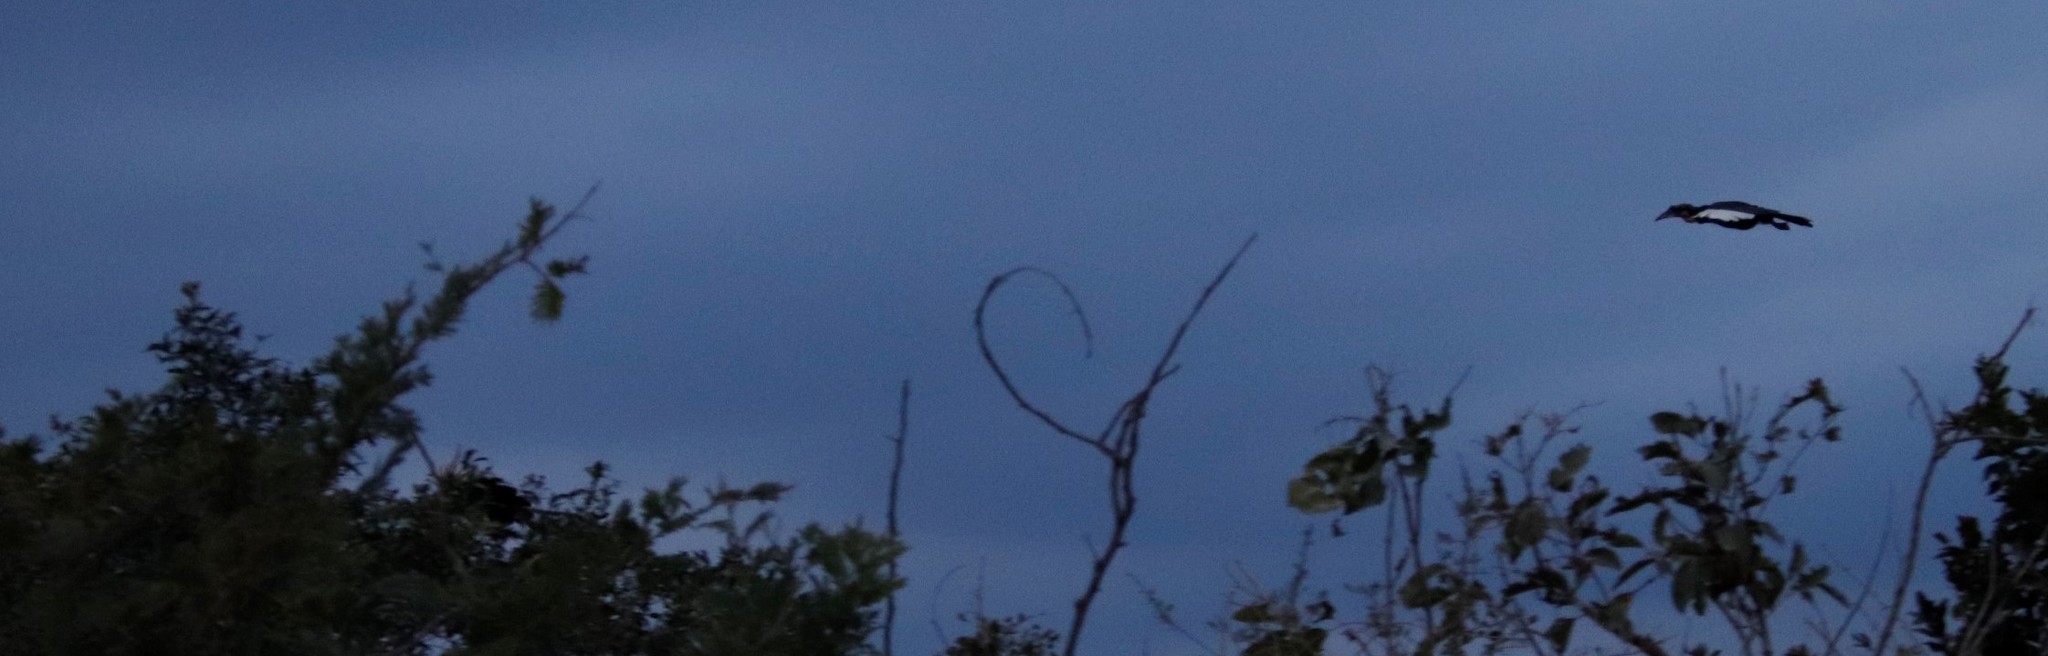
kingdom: Animalia
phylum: Chordata
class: Aves
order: Bucerotiformes
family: Bucorvidae
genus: Bucorvus
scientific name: Bucorvus leadbeateri
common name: Southern ground-hornbill
